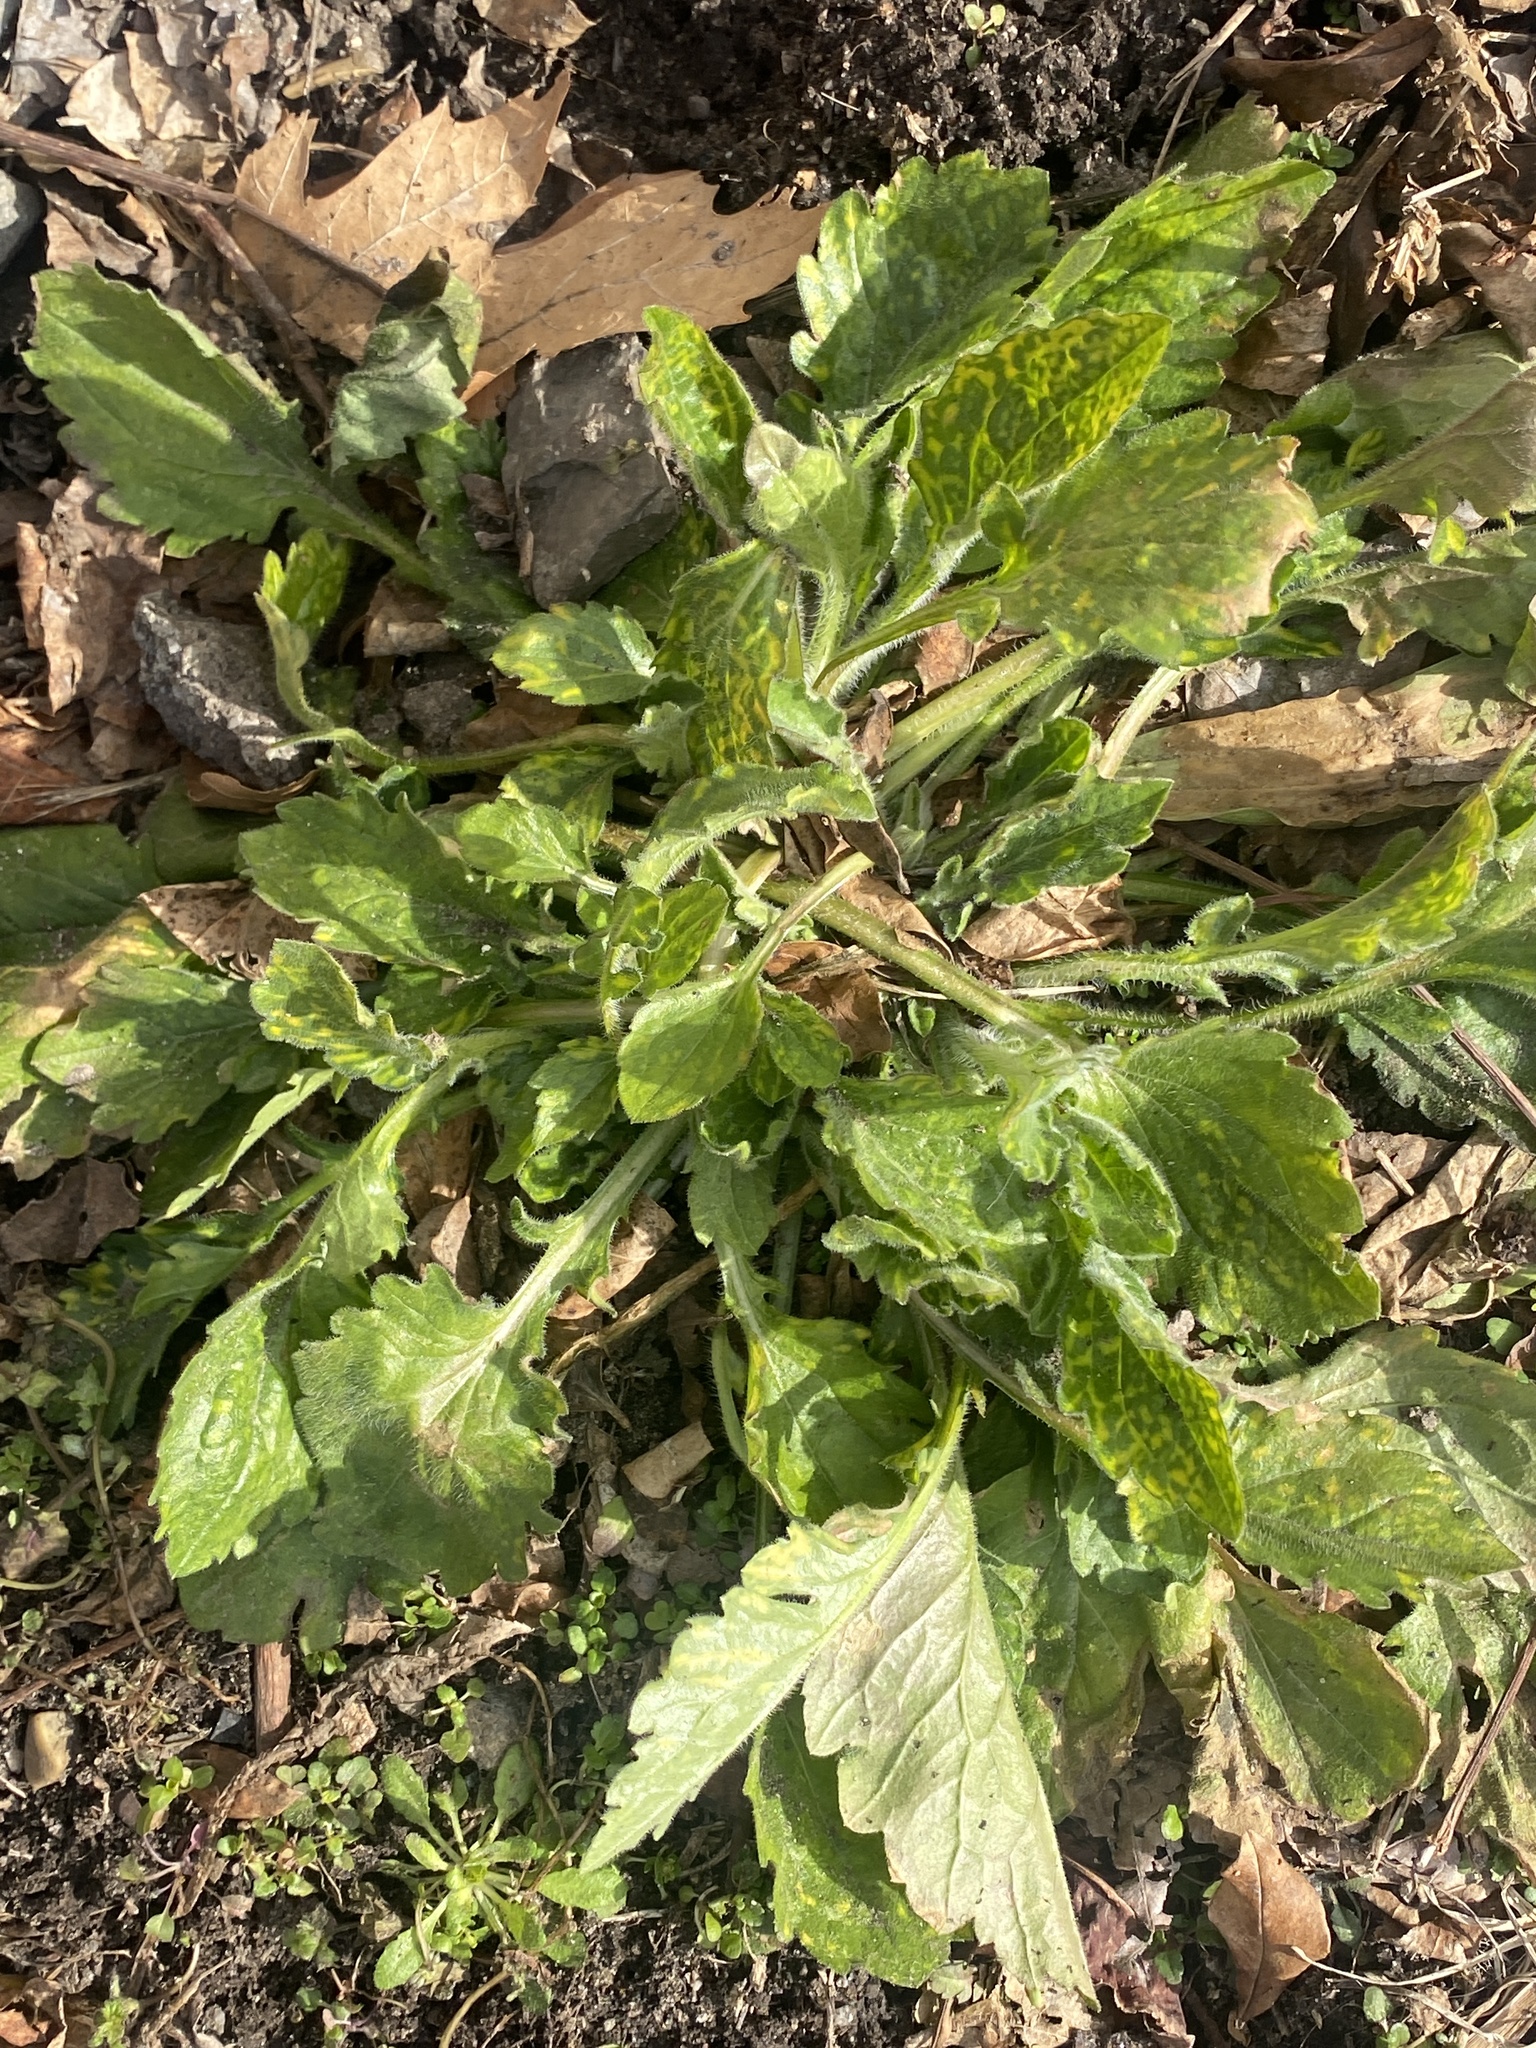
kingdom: Plantae
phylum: Tracheophyta
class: Magnoliopsida
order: Asterales
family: Asteraceae
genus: Erigeron
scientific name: Erigeron annuus
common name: Tall fleabane
